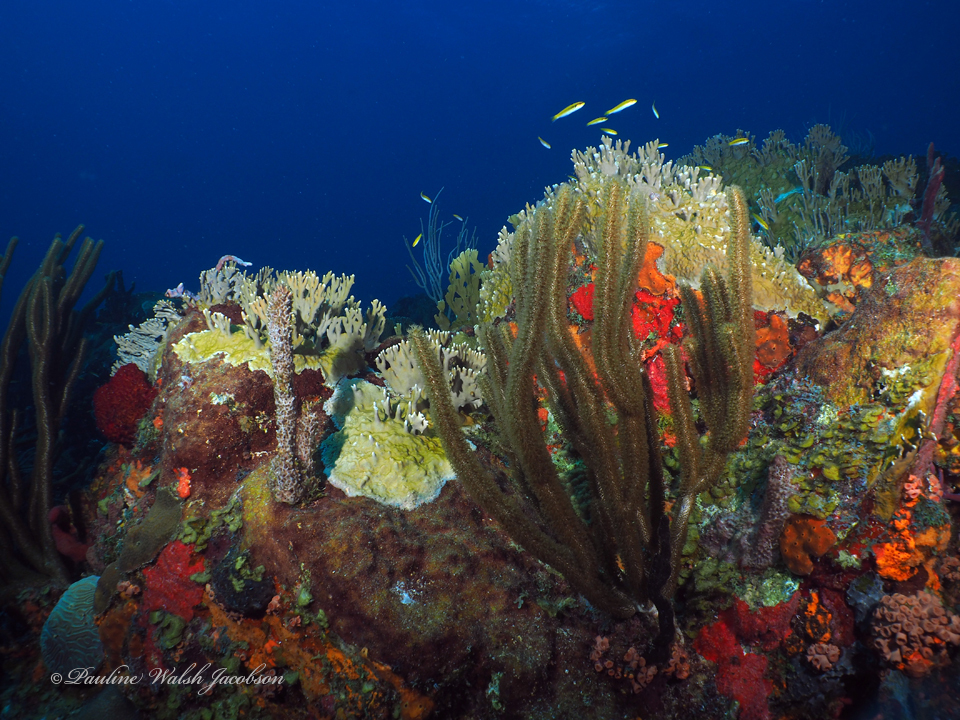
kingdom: Animalia
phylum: Chordata
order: Perciformes
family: Labridae
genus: Thalassoma
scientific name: Thalassoma bifasciatum
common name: Bluehead wrasse
